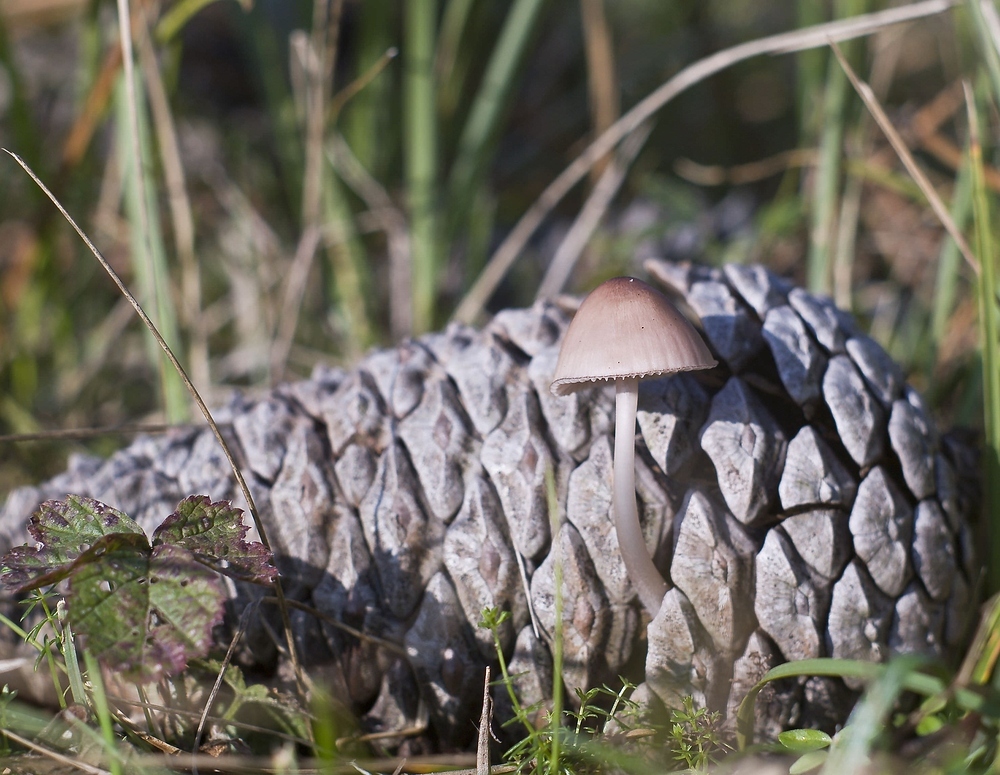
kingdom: Fungi
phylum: Basidiomycota
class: Agaricomycetes
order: Agaricales
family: Mycenaceae
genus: Mycena
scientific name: Mycena seynii
